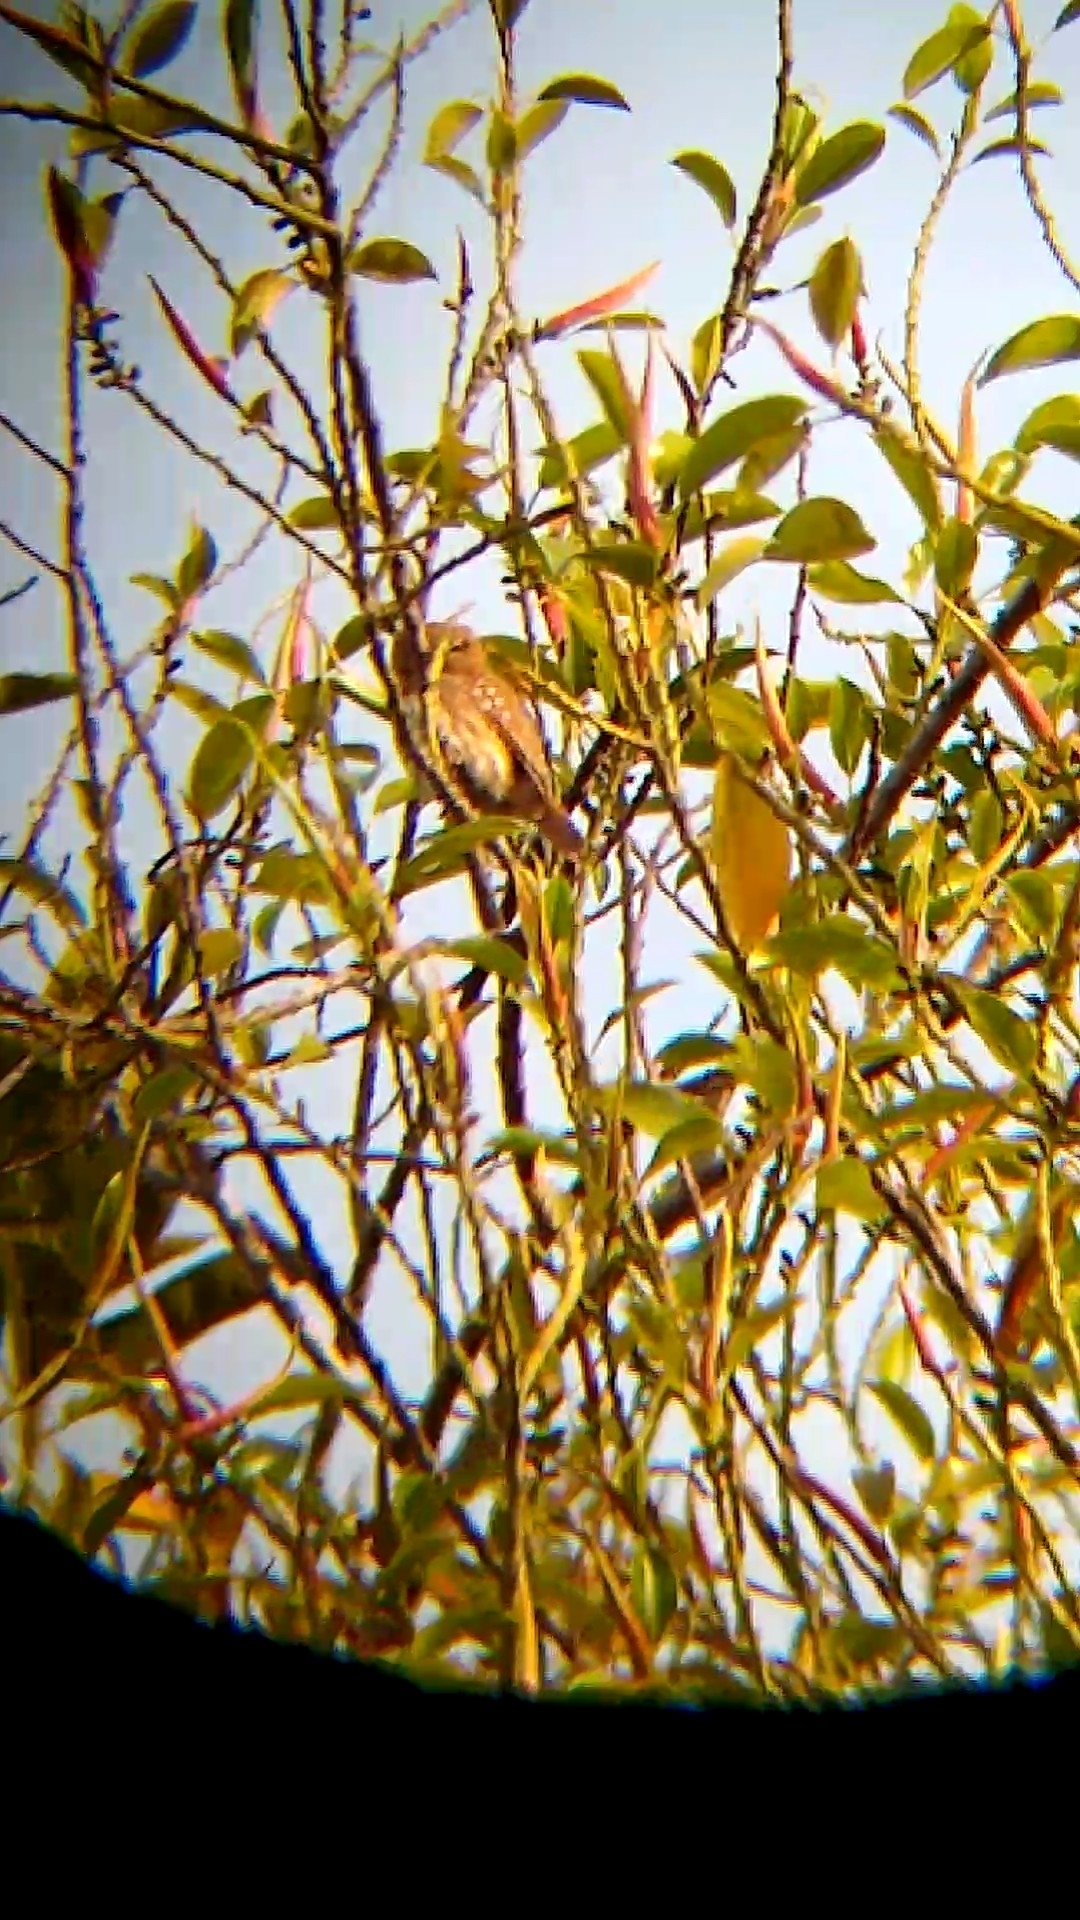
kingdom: Animalia
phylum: Chordata
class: Aves
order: Strigiformes
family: Strigidae
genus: Glaucidium
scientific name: Glaucidium brasilianum
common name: Ferruginous pygmy-owl
